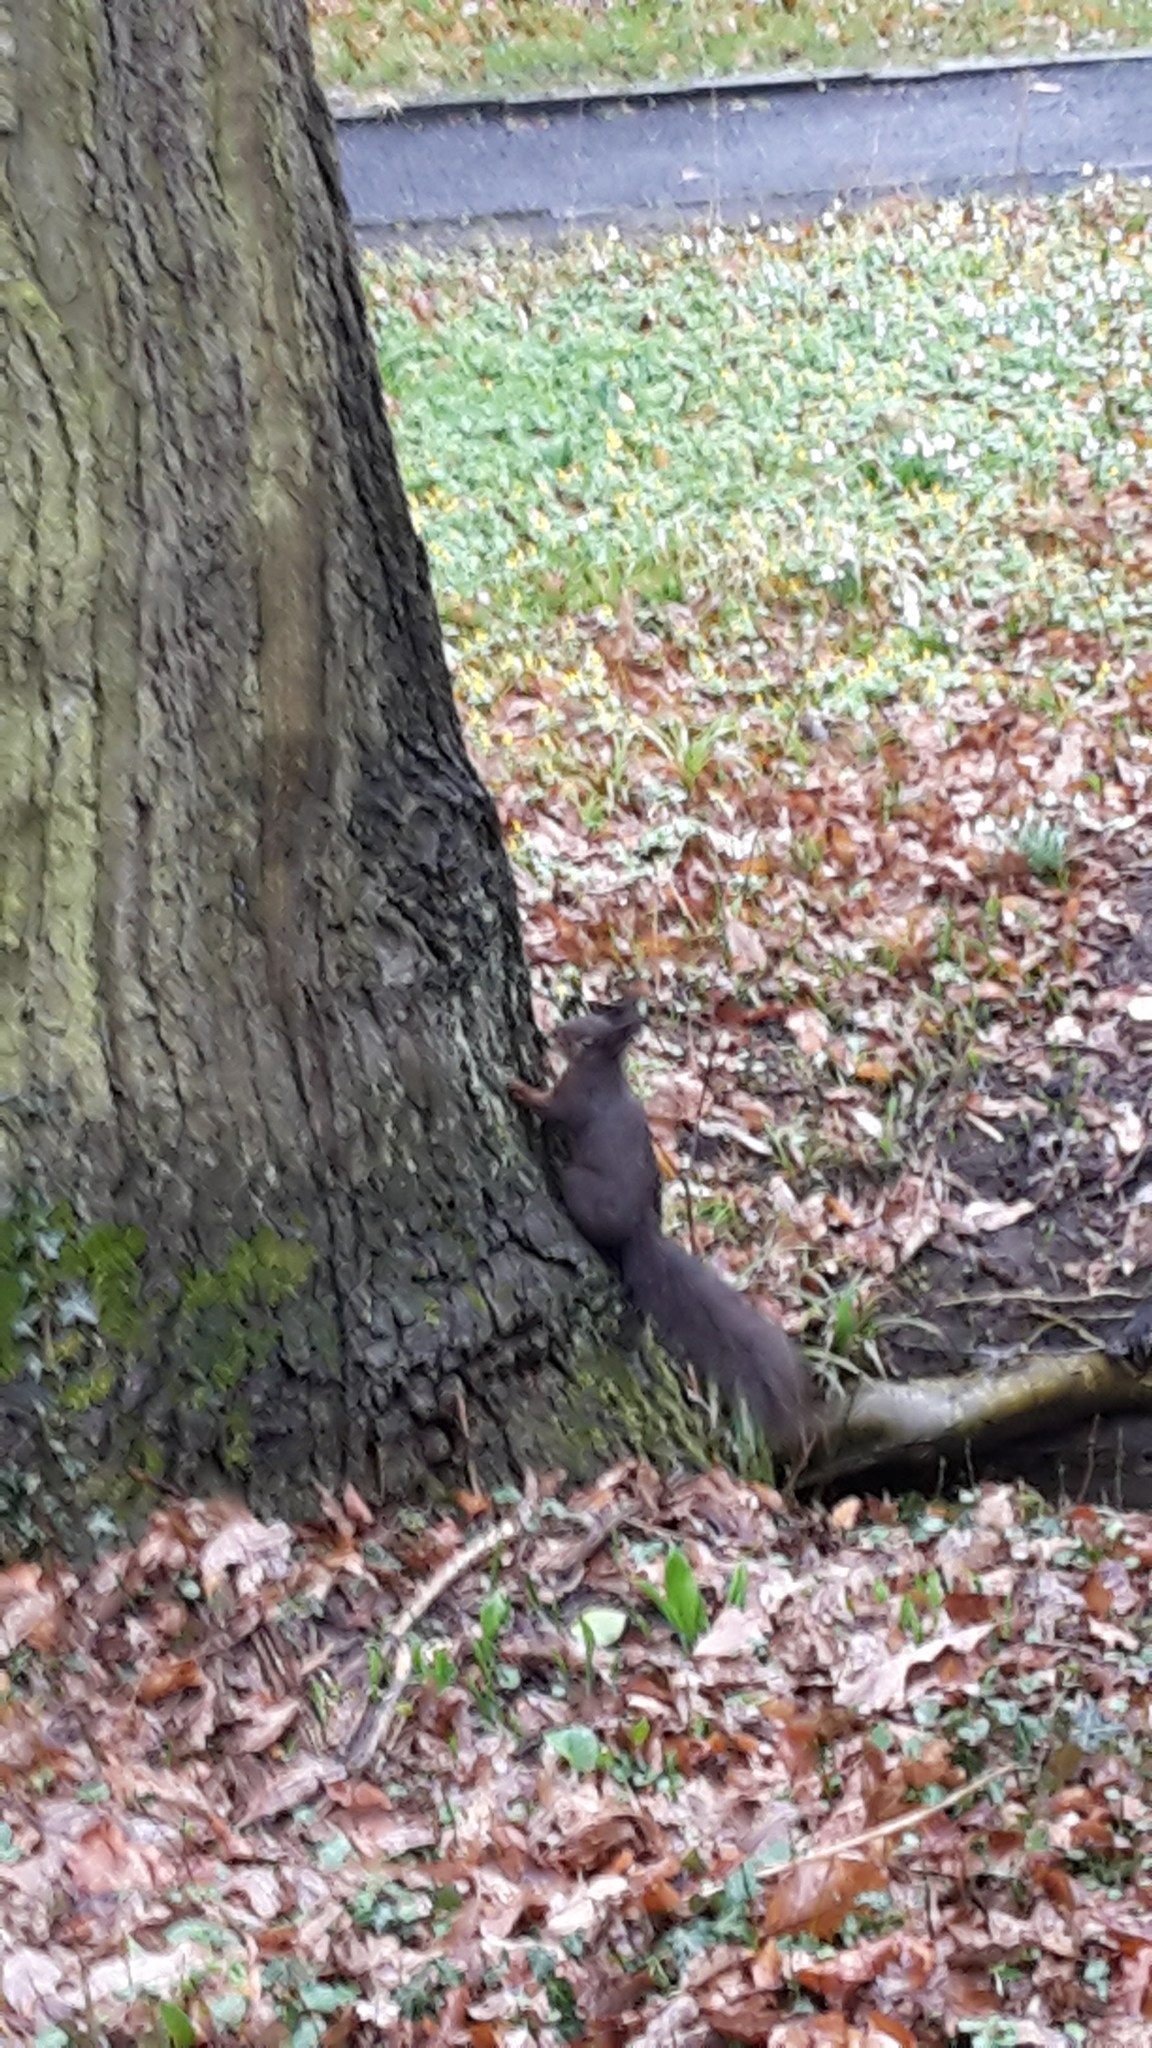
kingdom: Animalia
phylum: Chordata
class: Mammalia
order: Rodentia
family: Sciuridae
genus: Sciurus
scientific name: Sciurus vulgaris
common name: Eurasian red squirrel
